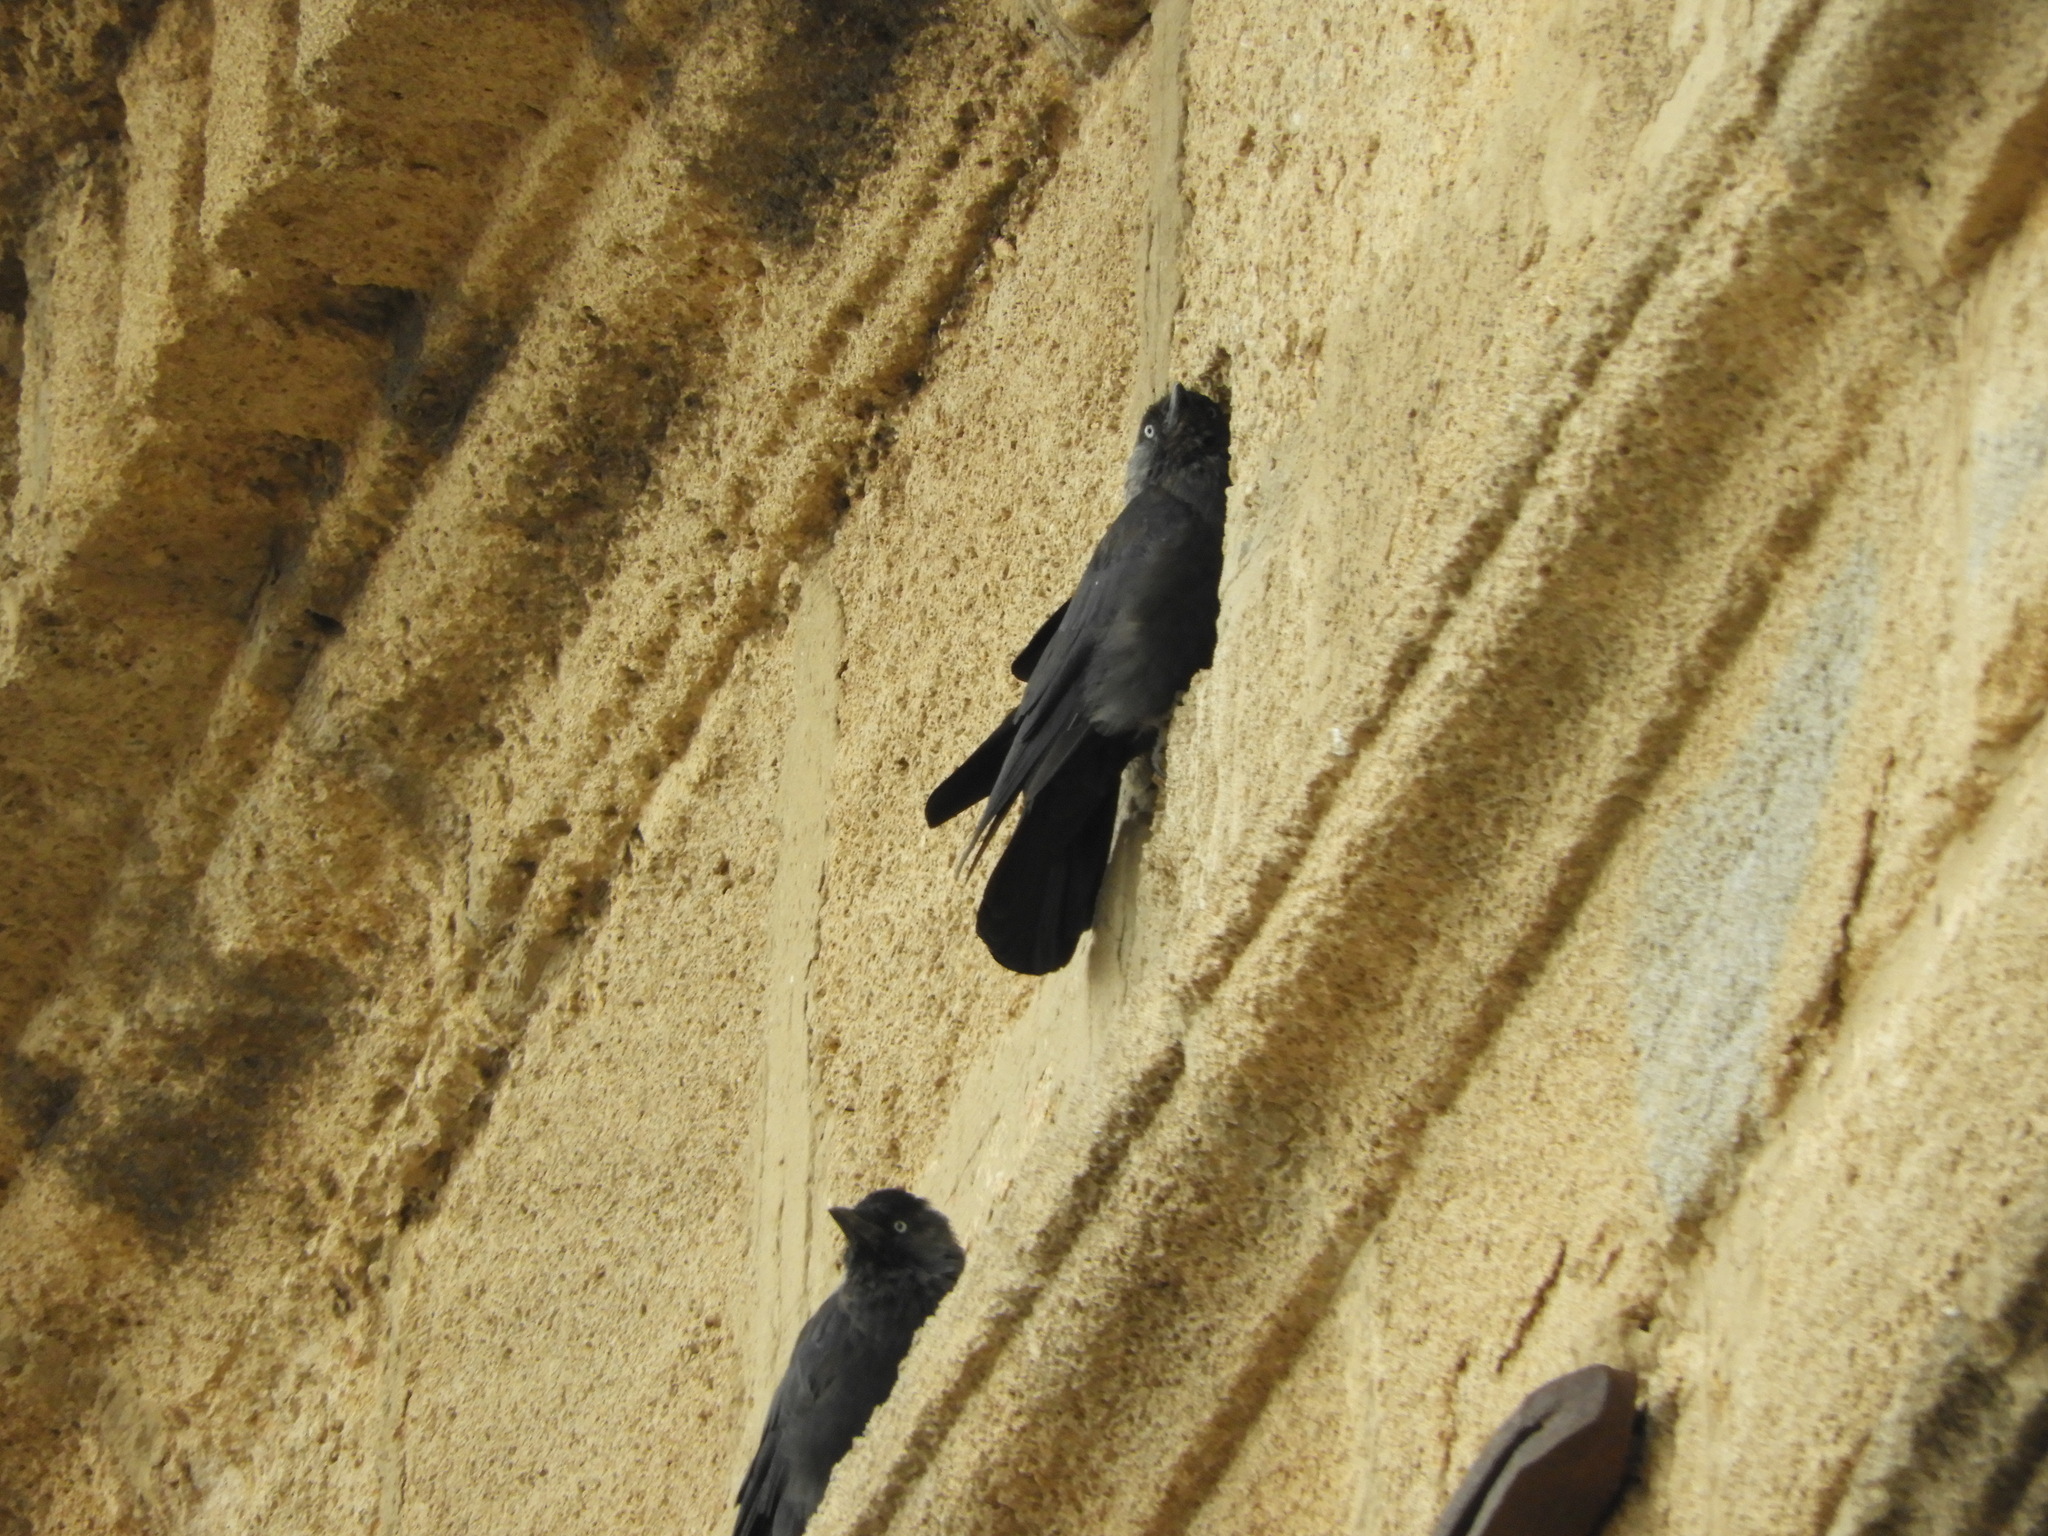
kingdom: Animalia
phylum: Chordata
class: Aves
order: Passeriformes
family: Corvidae
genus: Coloeus
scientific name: Coloeus monedula
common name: Western jackdaw
